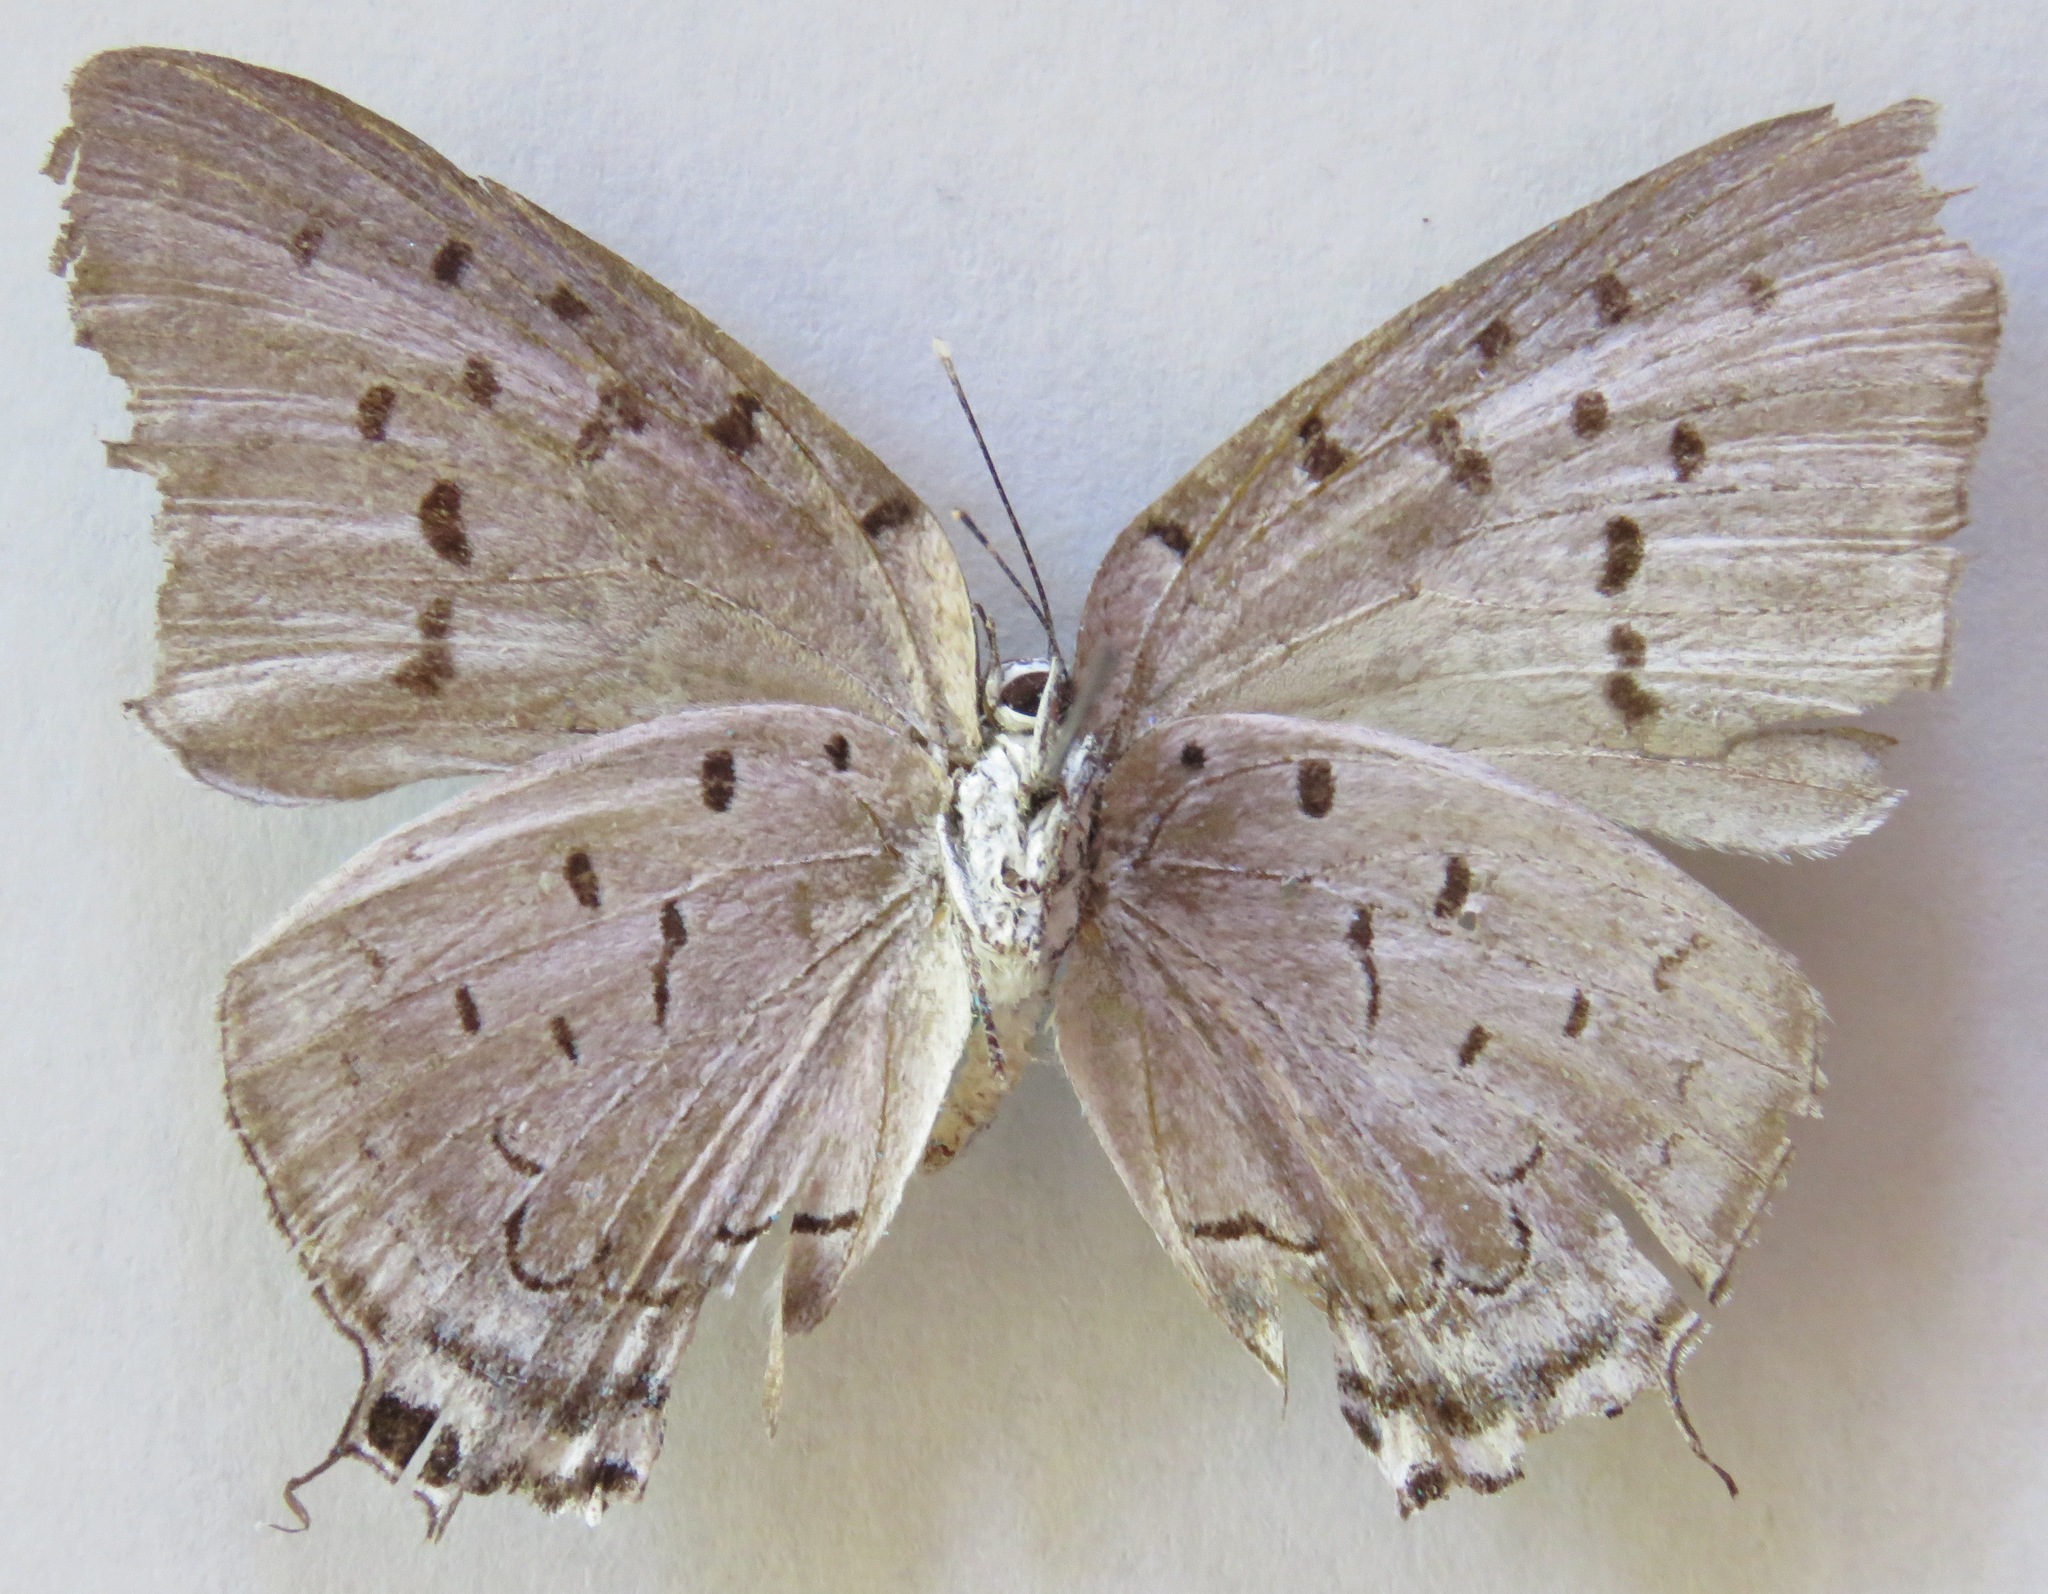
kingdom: Animalia
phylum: Arthropoda
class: Insecta
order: Lepidoptera
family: Lycaenidae
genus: Pseudolycaena
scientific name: Pseudolycaena damo
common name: Sky-blue hairstreak
